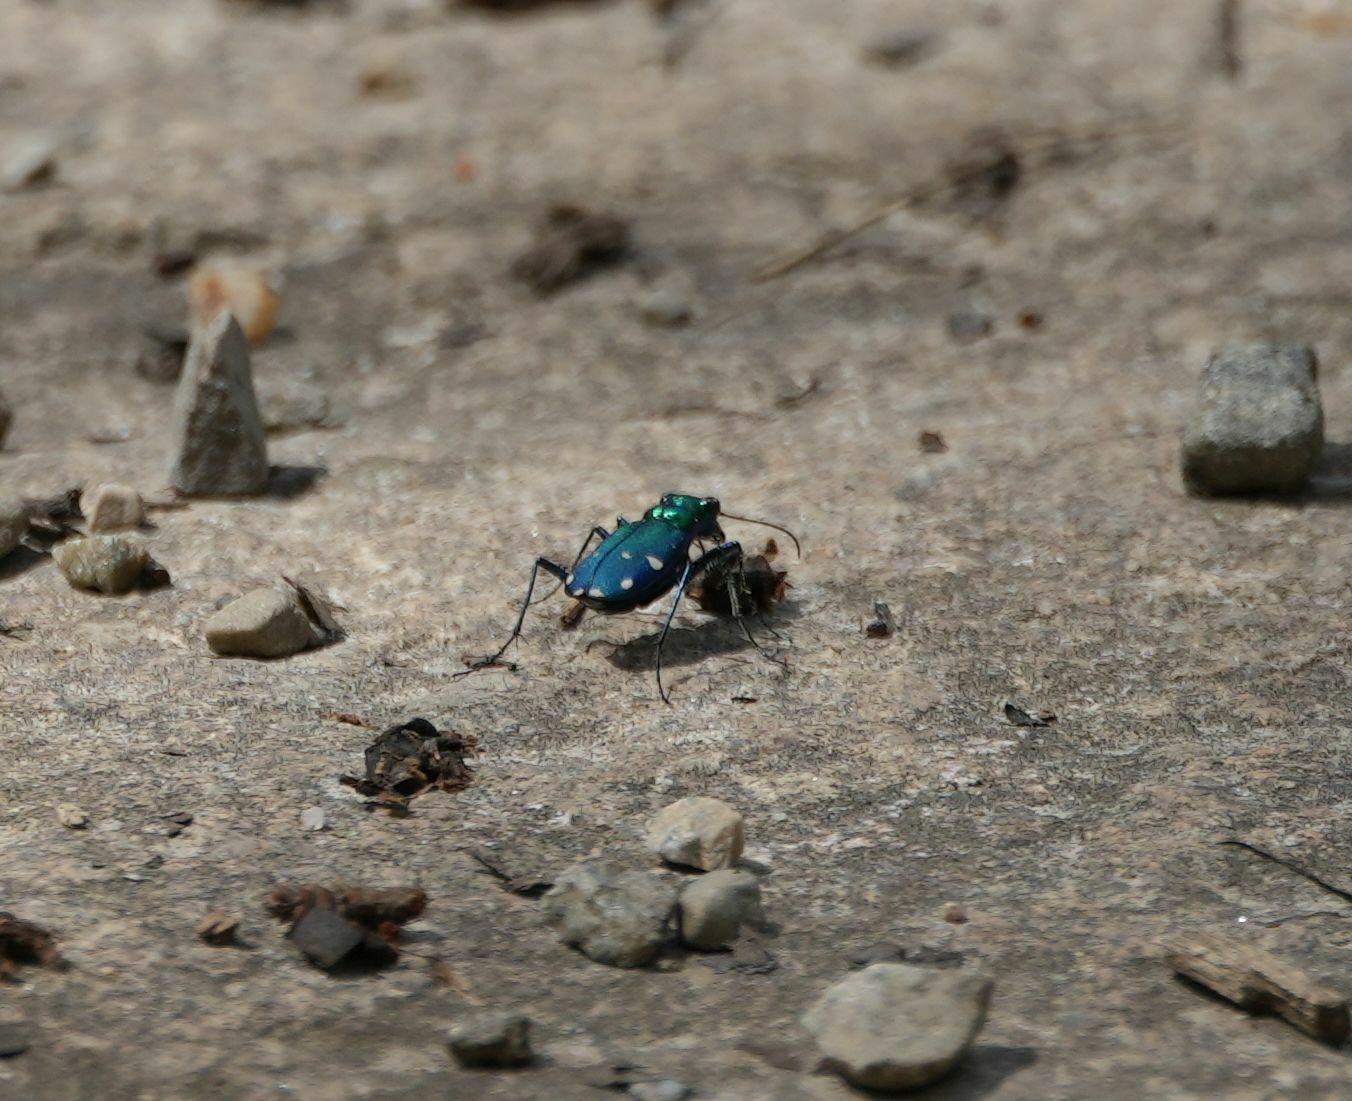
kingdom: Animalia
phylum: Arthropoda
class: Insecta
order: Coleoptera
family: Carabidae
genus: Cicindela
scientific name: Cicindela sexguttata
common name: Six-spotted tiger beetle
